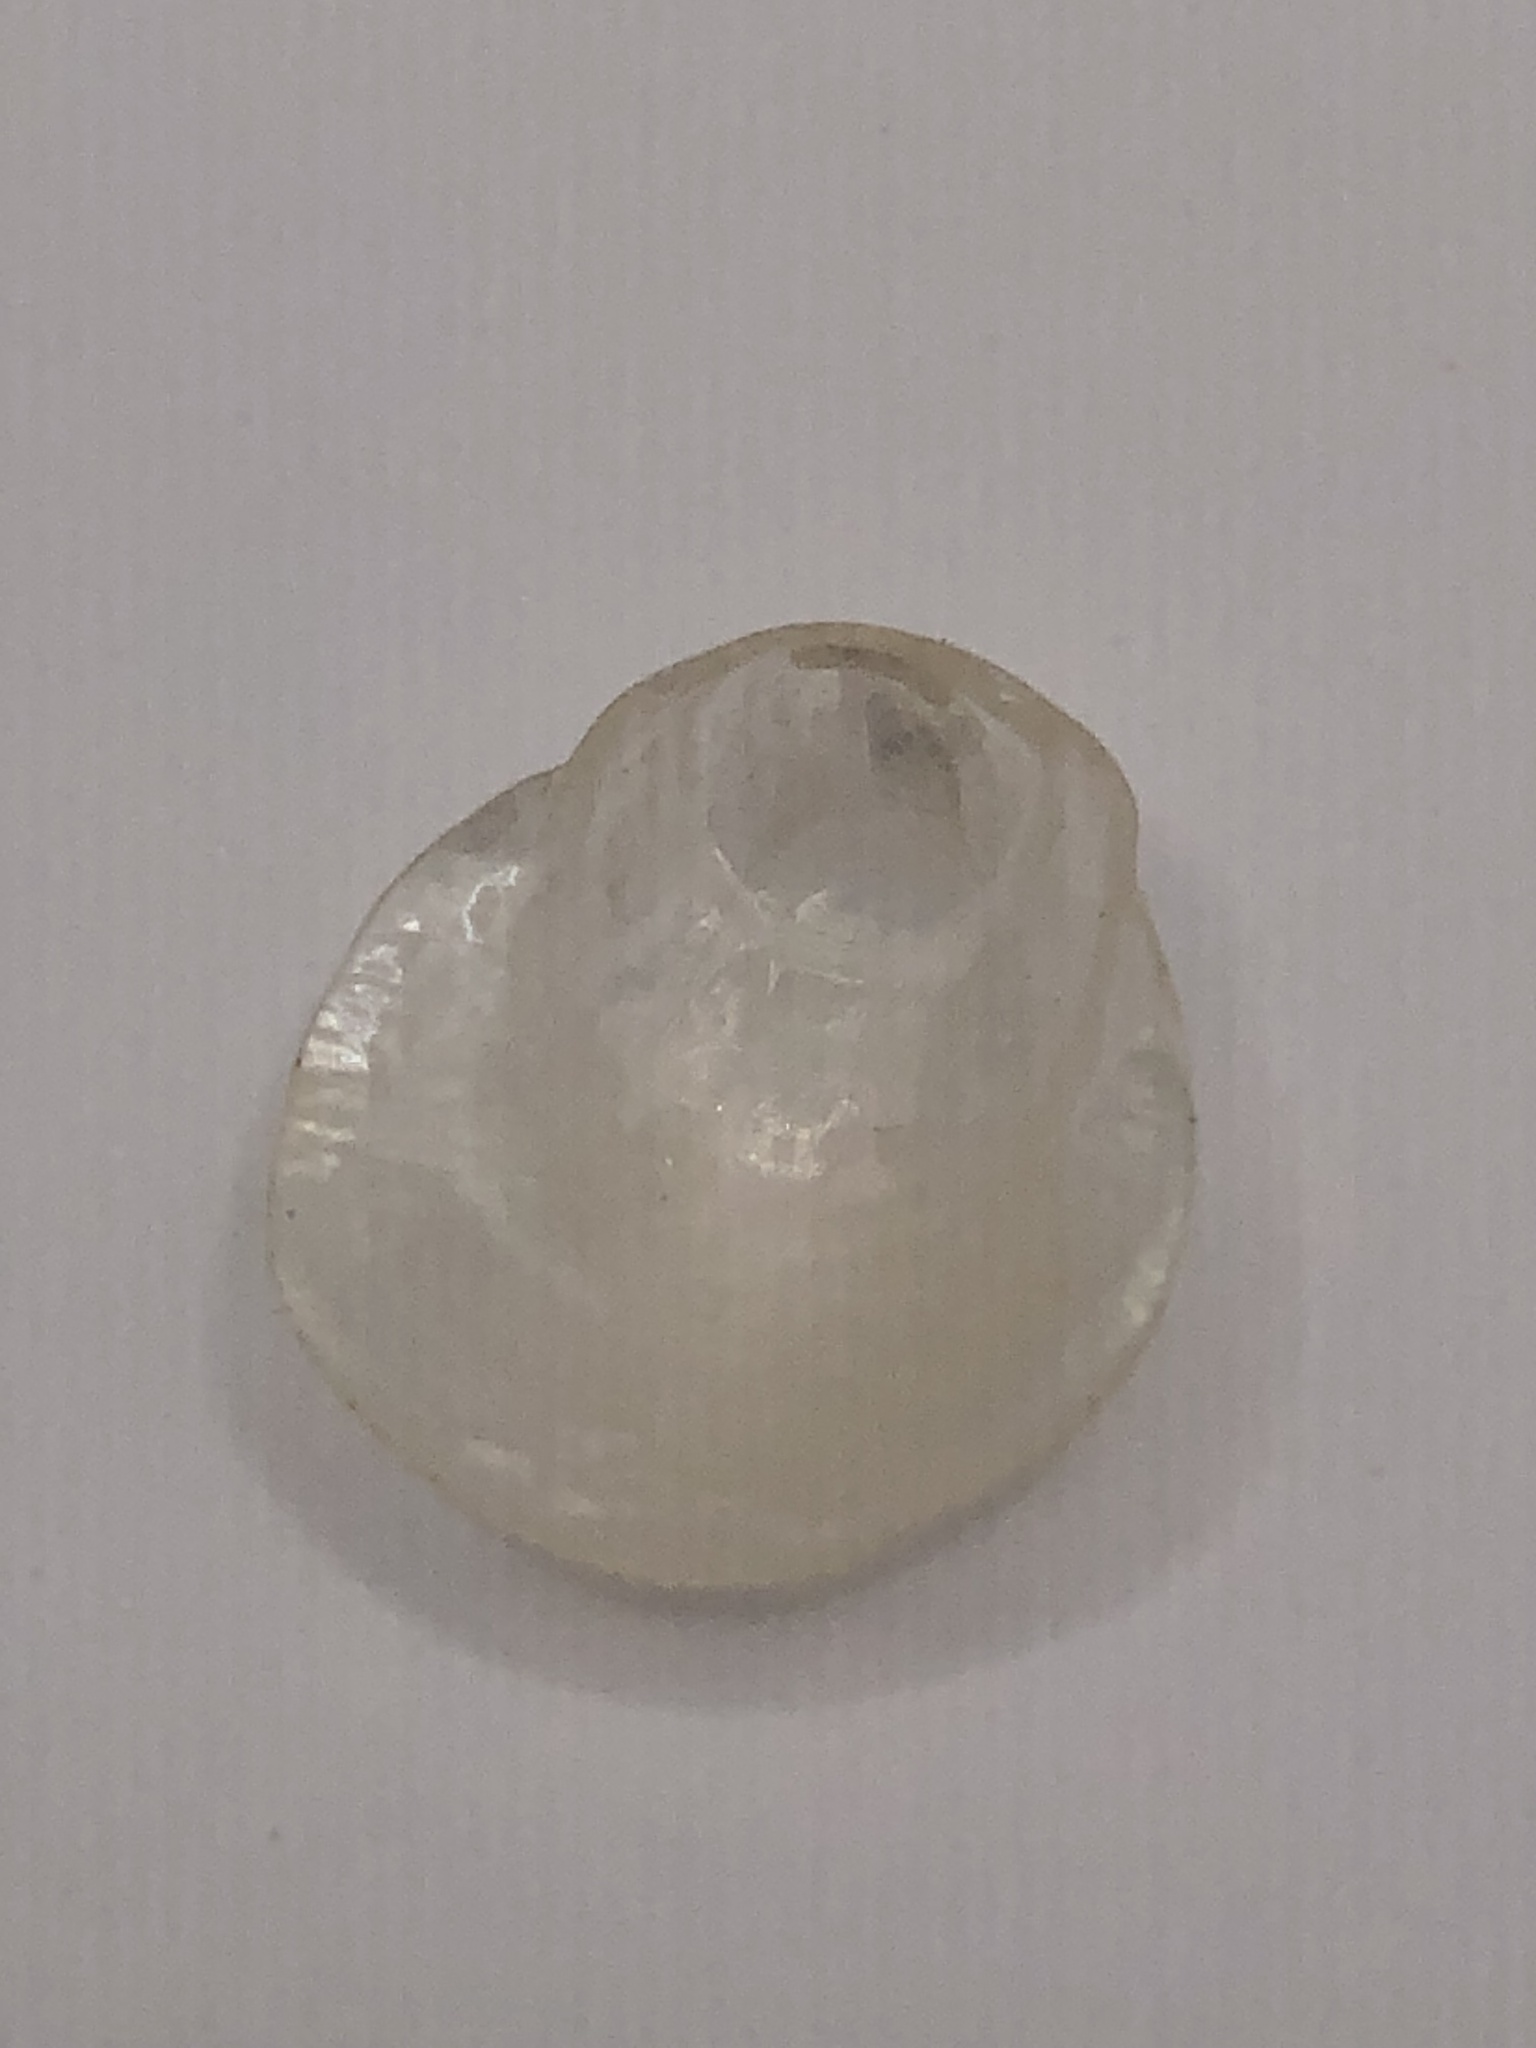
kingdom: Animalia
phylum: Mollusca
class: Bivalvia
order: Pectinida
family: Anomiidae
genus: Anomia
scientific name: Anomia simplex
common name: Common jingle shell
